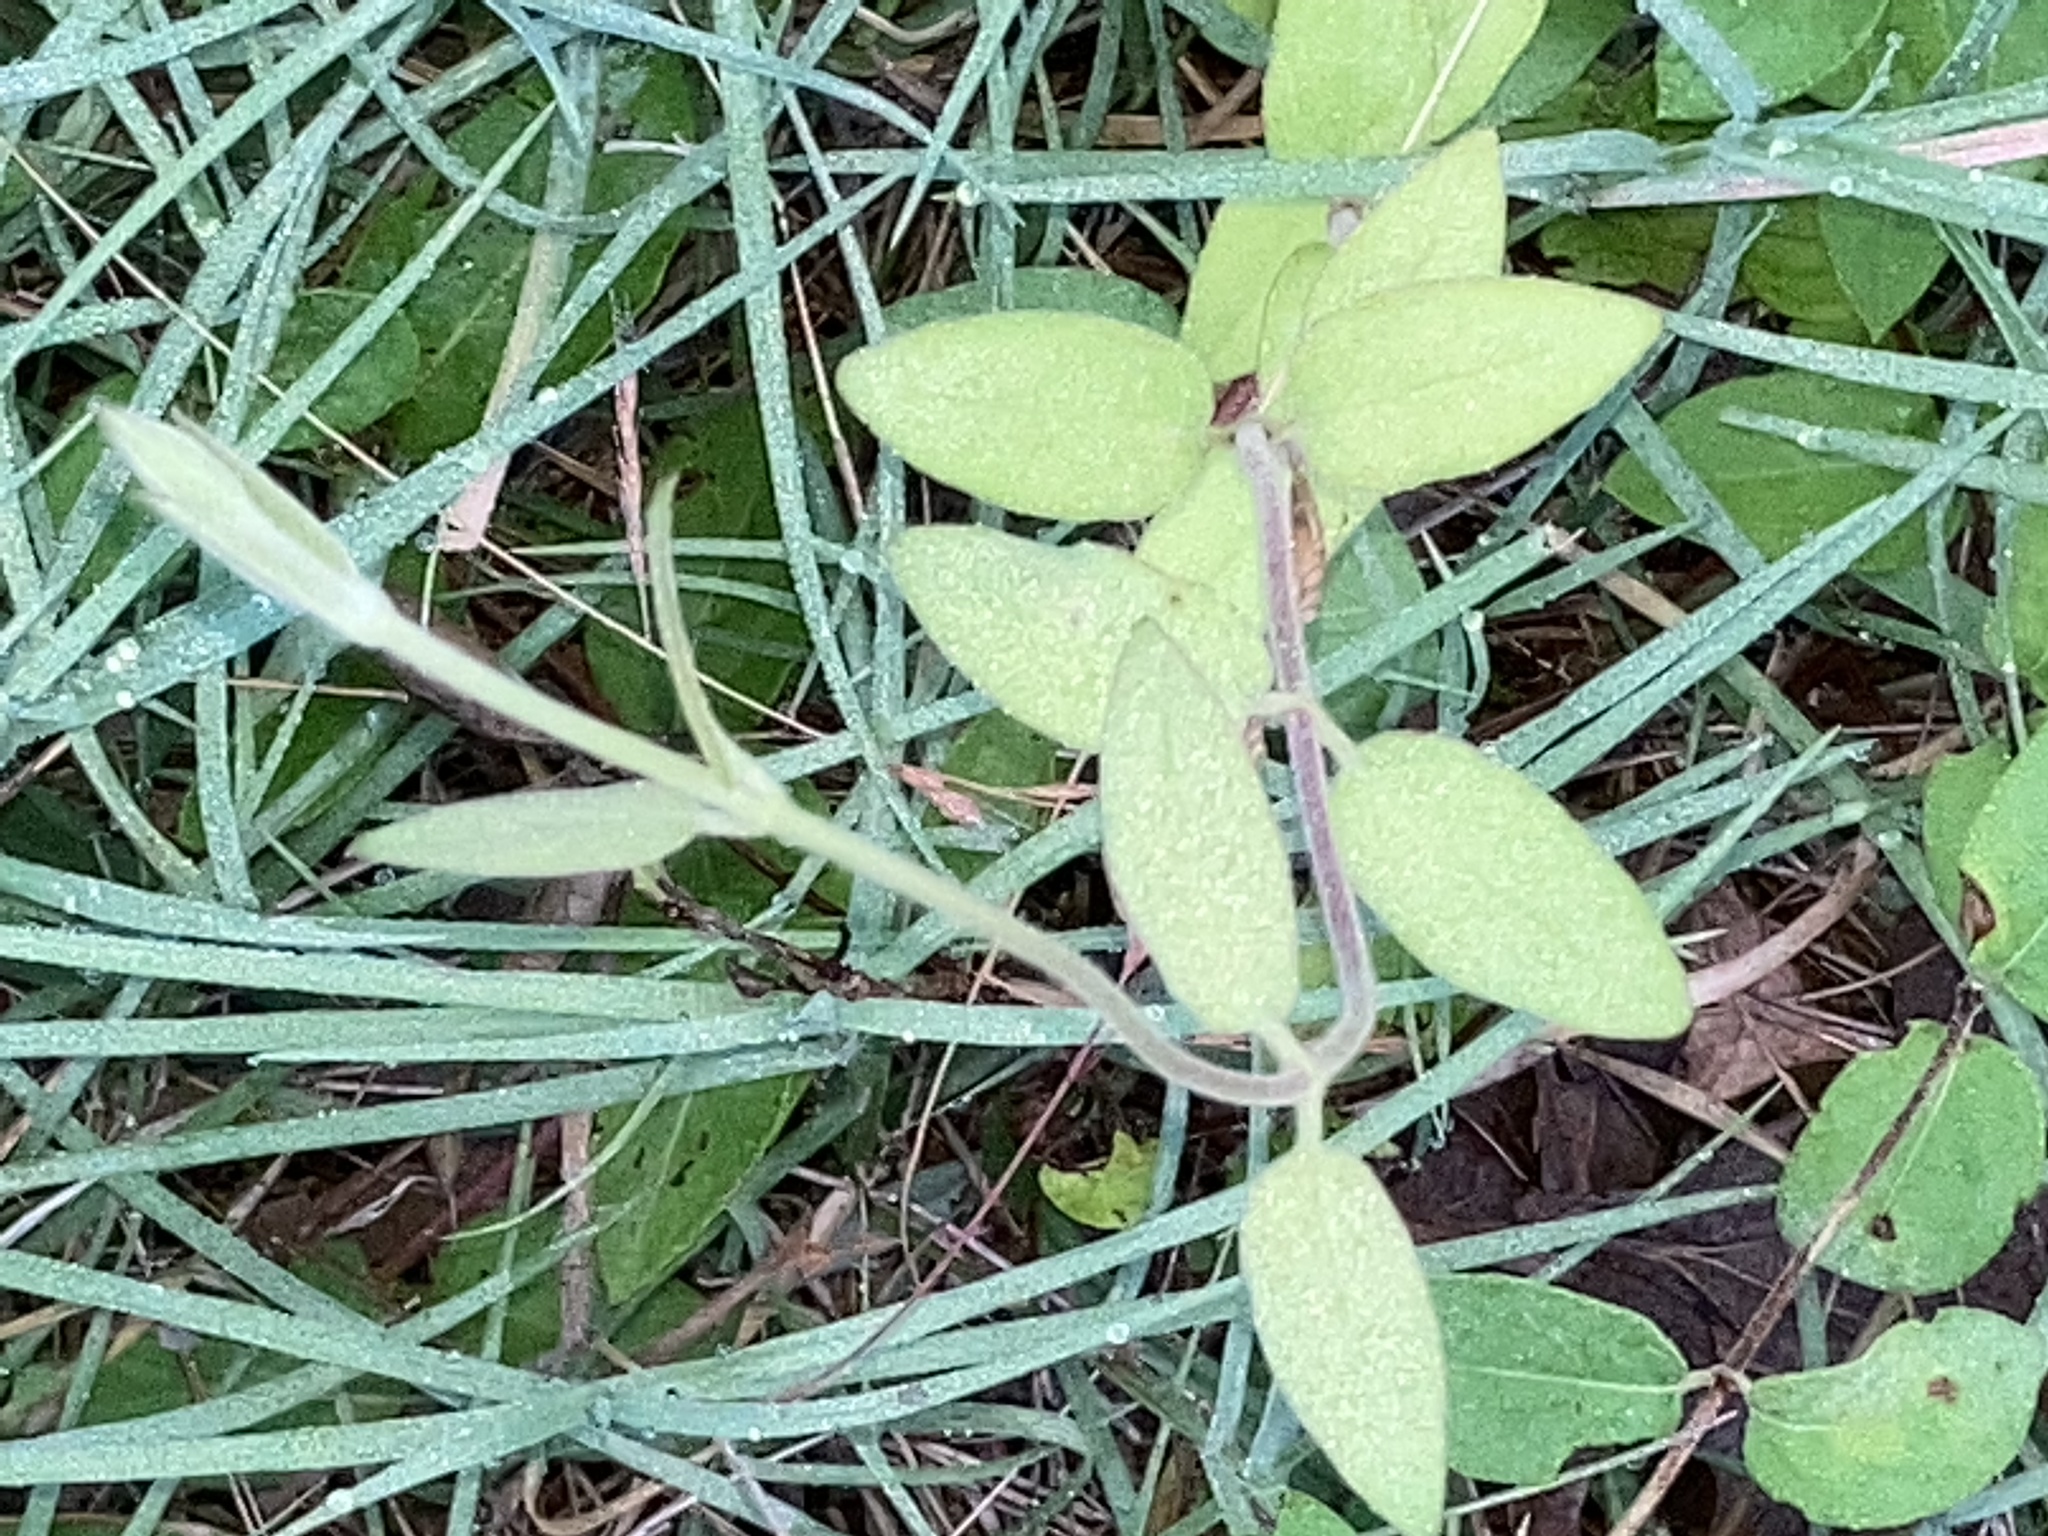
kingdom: Plantae
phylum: Tracheophyta
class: Magnoliopsida
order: Dipsacales
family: Caprifoliaceae
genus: Lonicera
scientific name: Lonicera japonica
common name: Japanese honeysuckle
